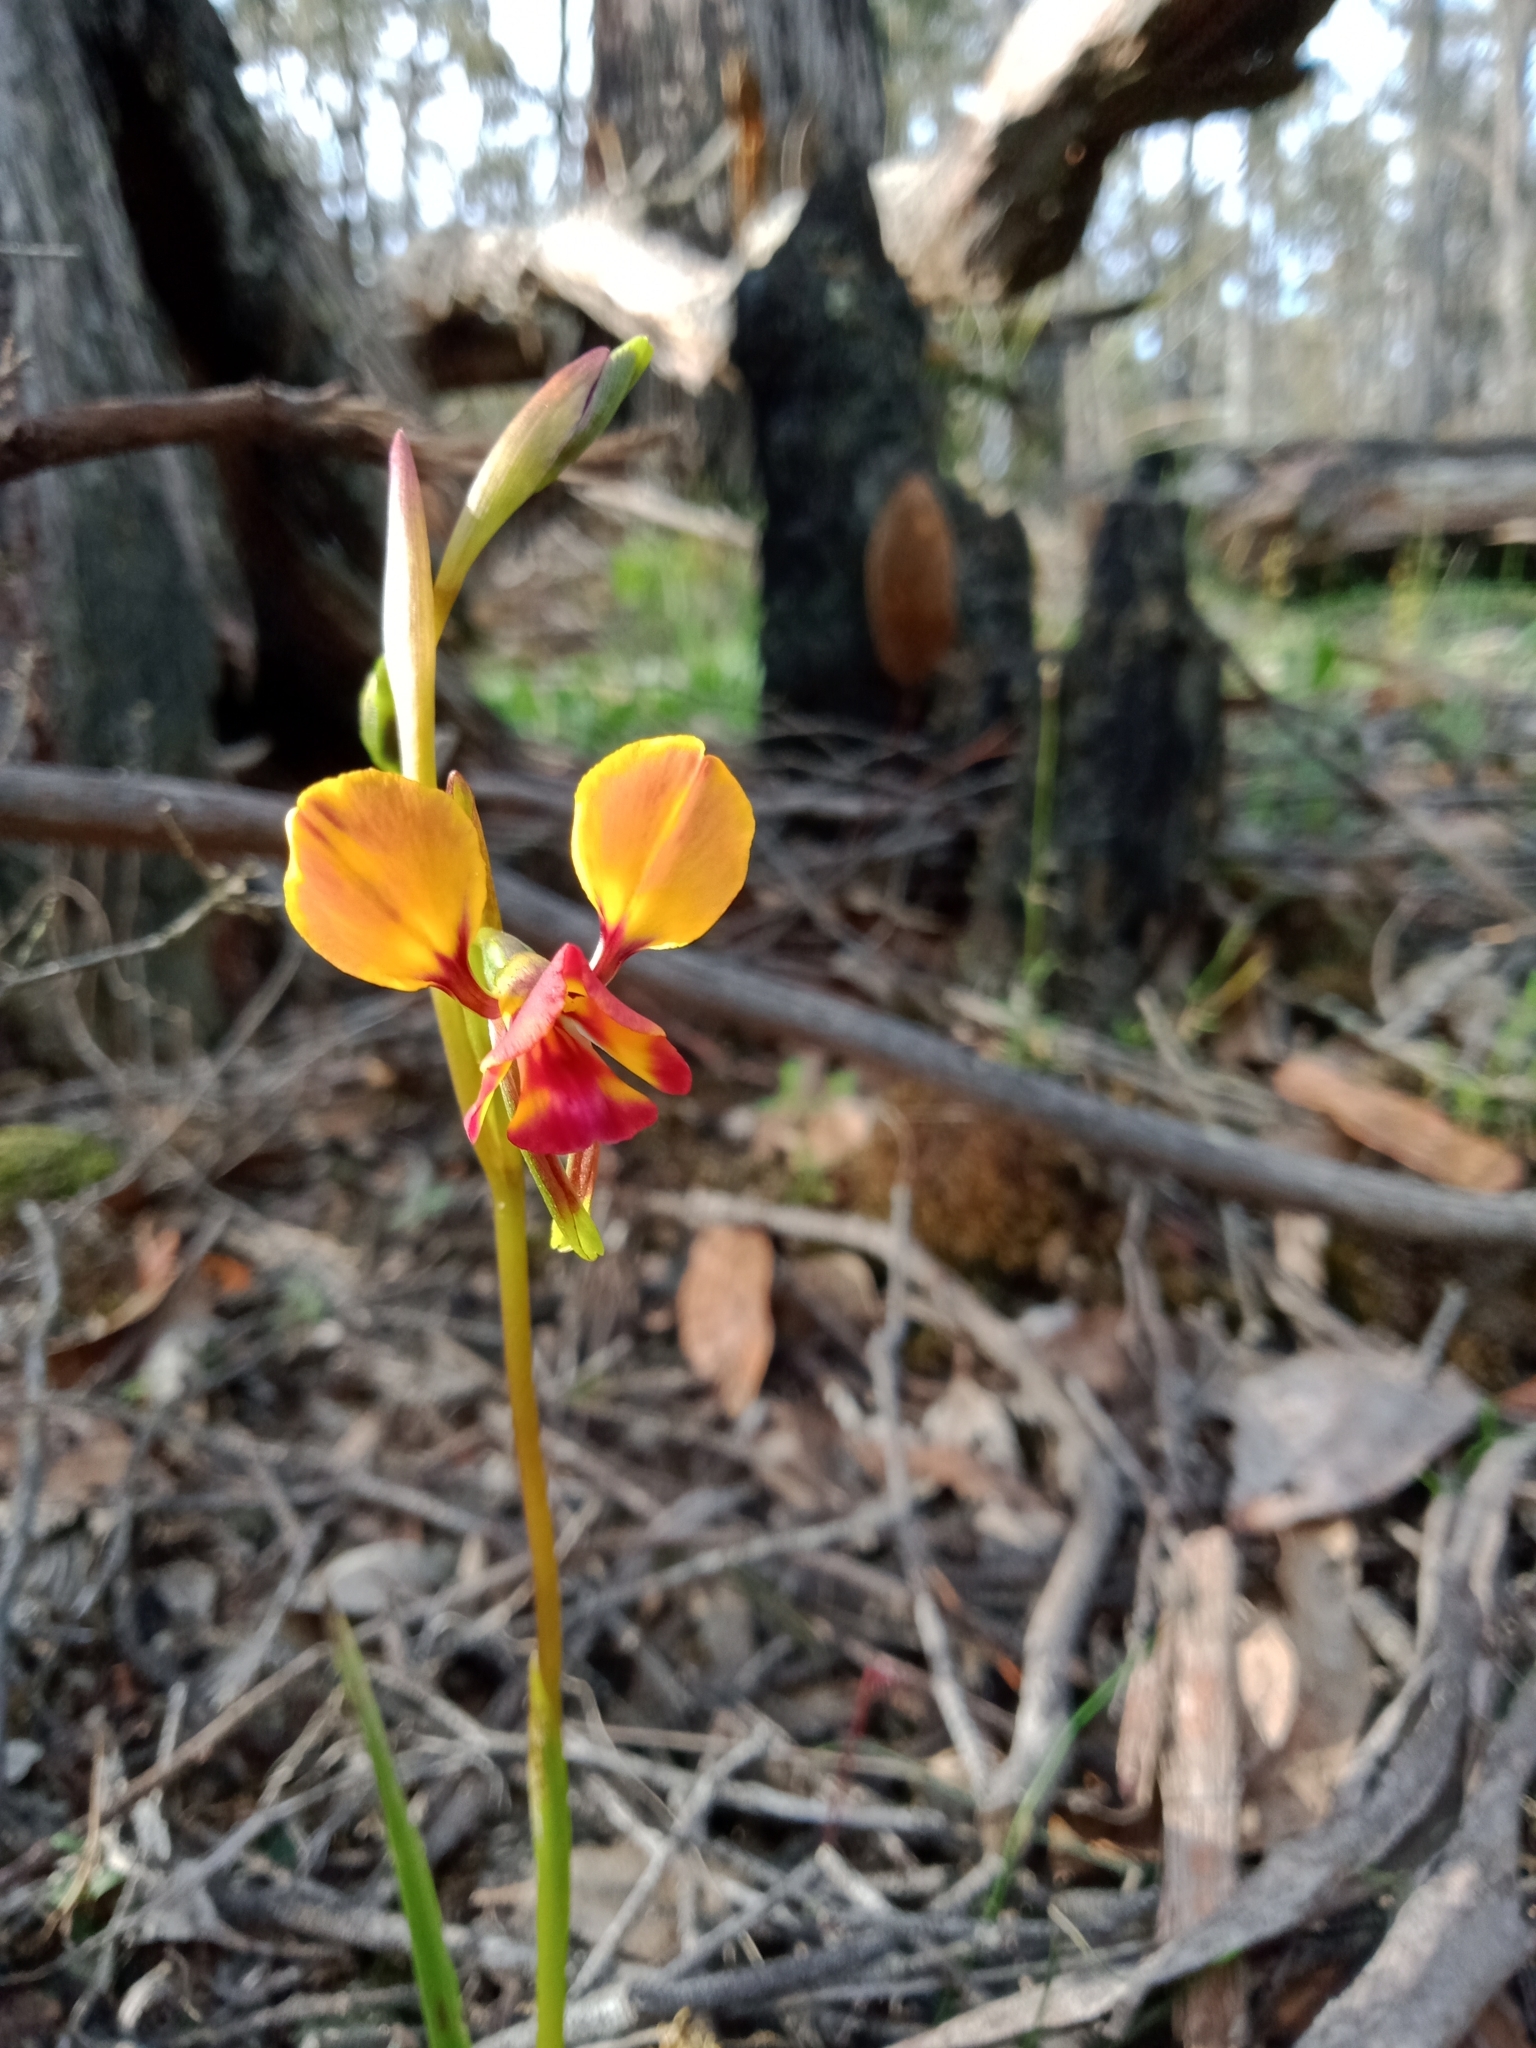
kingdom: Plantae
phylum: Tracheophyta
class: Liliopsida
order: Asparagales
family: Orchidaceae
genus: Diuris
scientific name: Diuris orientis
